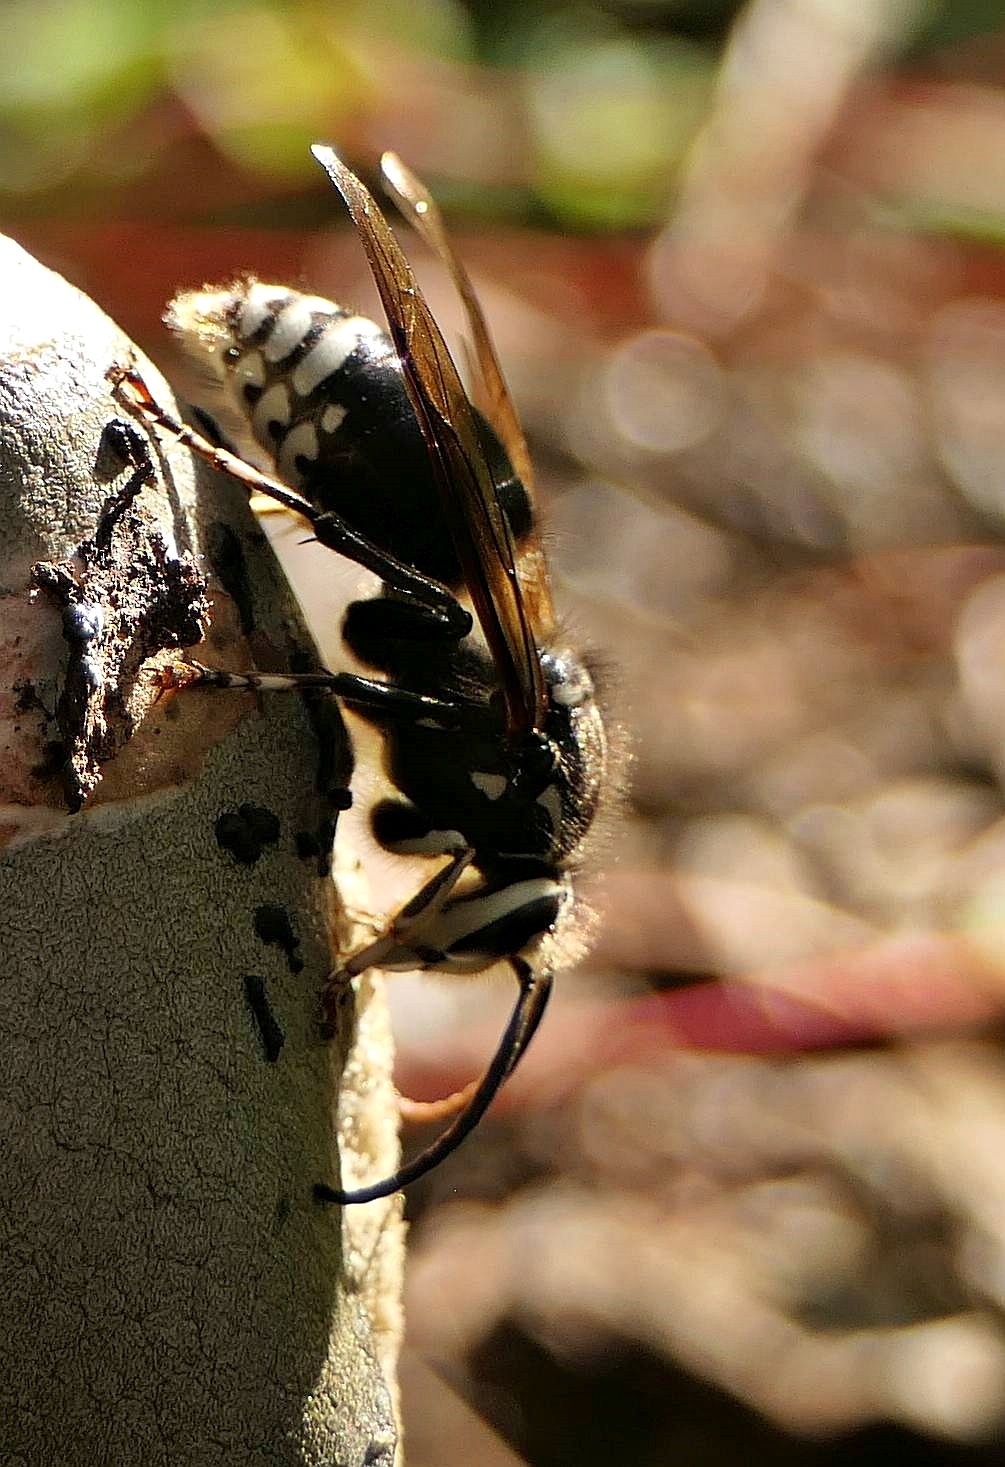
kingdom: Animalia
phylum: Arthropoda
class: Insecta
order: Hymenoptera
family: Vespidae
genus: Dolichovespula
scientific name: Dolichovespula maculata
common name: Bald-faced hornet
